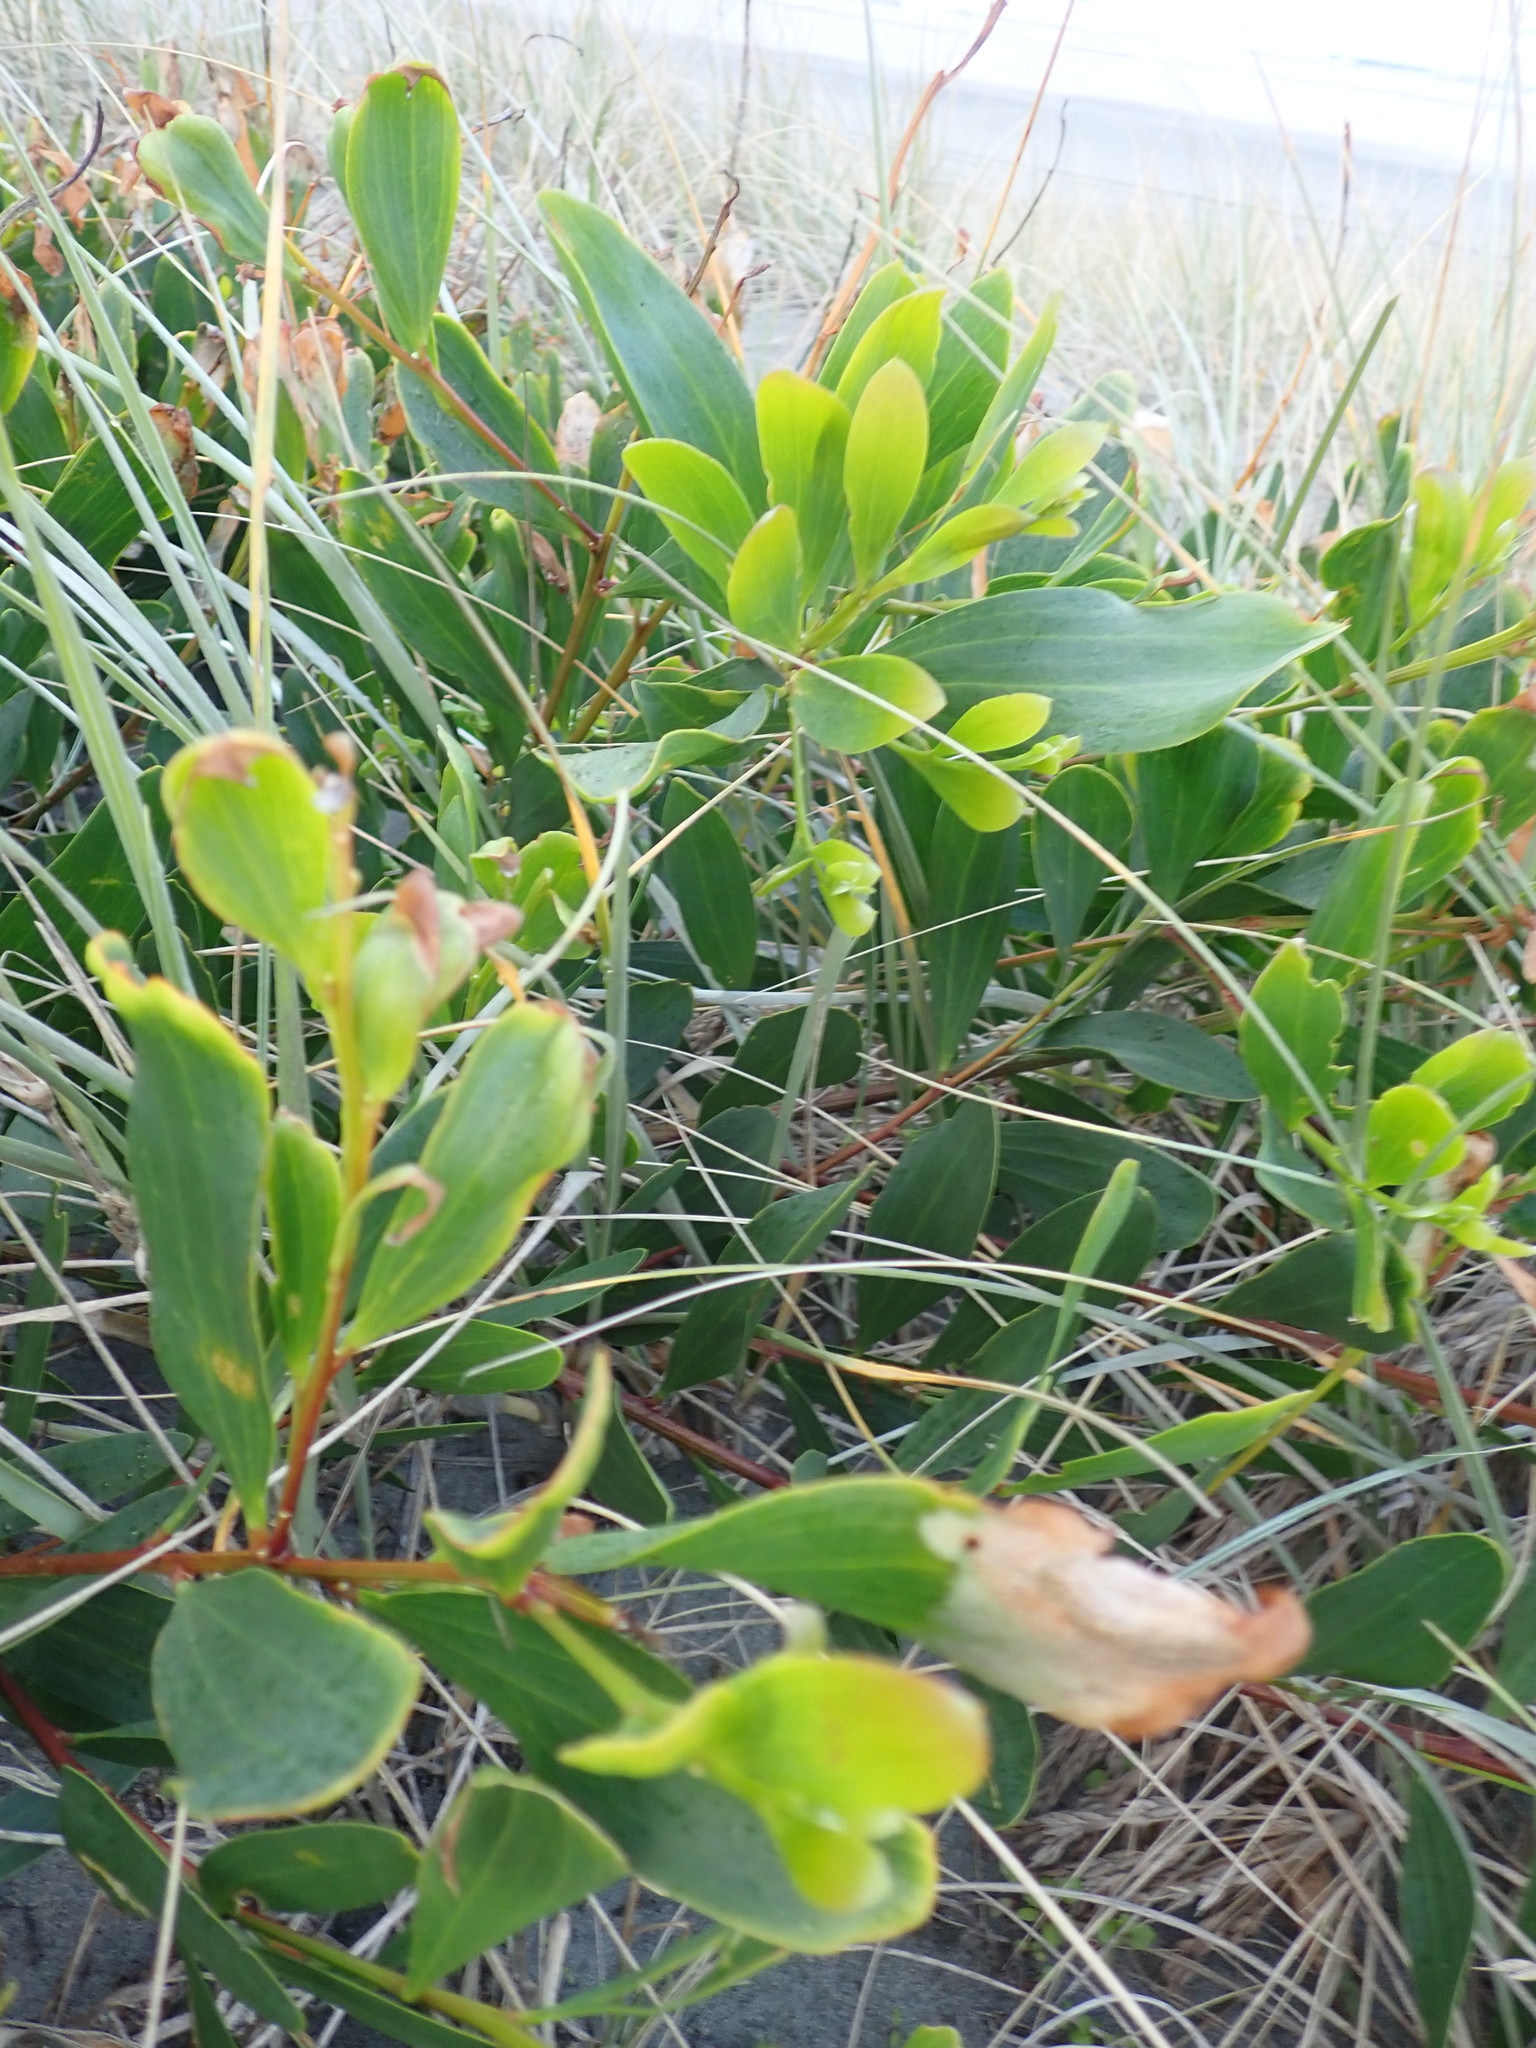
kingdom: Plantae
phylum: Tracheophyta
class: Magnoliopsida
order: Fabales
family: Fabaceae
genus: Acacia
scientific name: Acacia longifolia
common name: Sydney golden wattle
